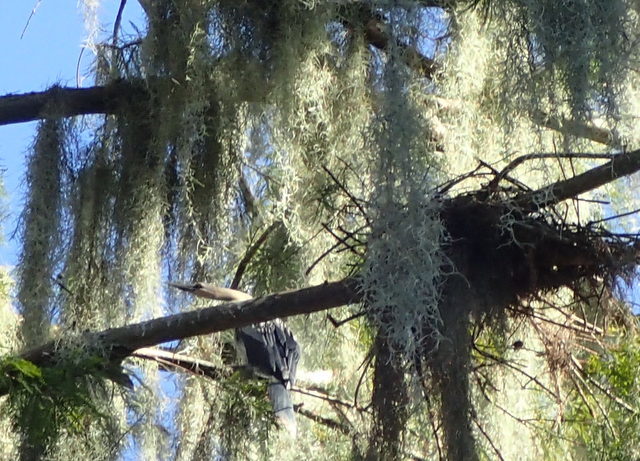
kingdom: Animalia
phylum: Chordata
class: Aves
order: Suliformes
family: Anhingidae
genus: Anhinga
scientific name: Anhinga anhinga
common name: Anhinga
